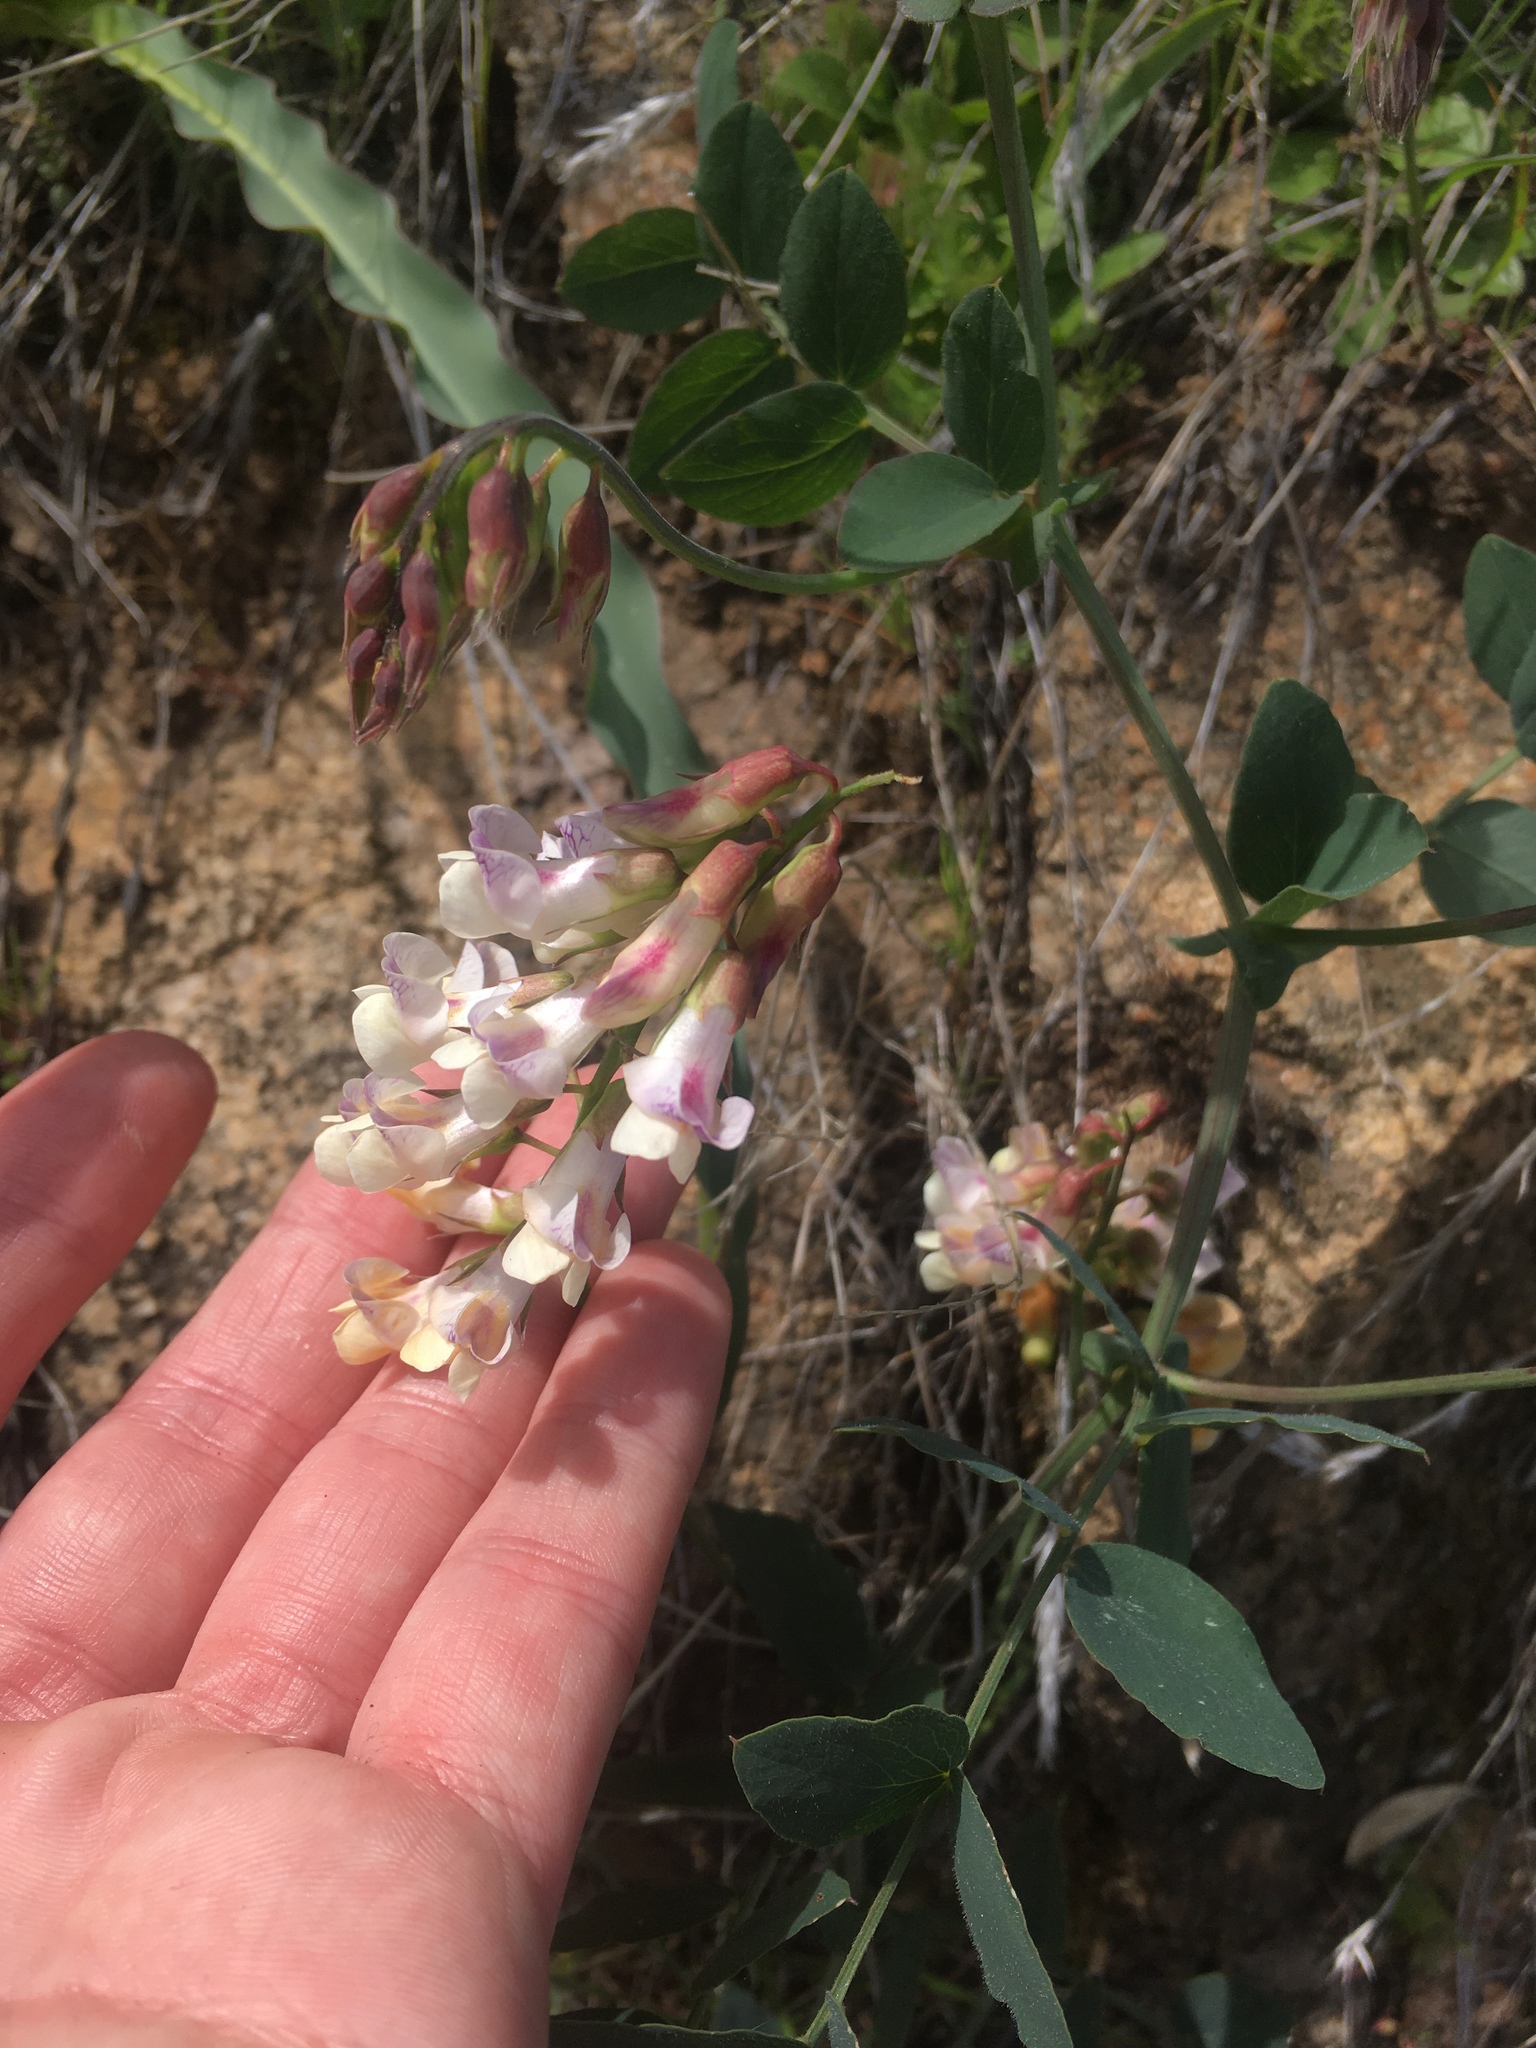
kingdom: Plantae
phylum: Tracheophyta
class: Magnoliopsida
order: Fabales
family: Fabaceae
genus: Lathyrus
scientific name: Lathyrus sulphureus
